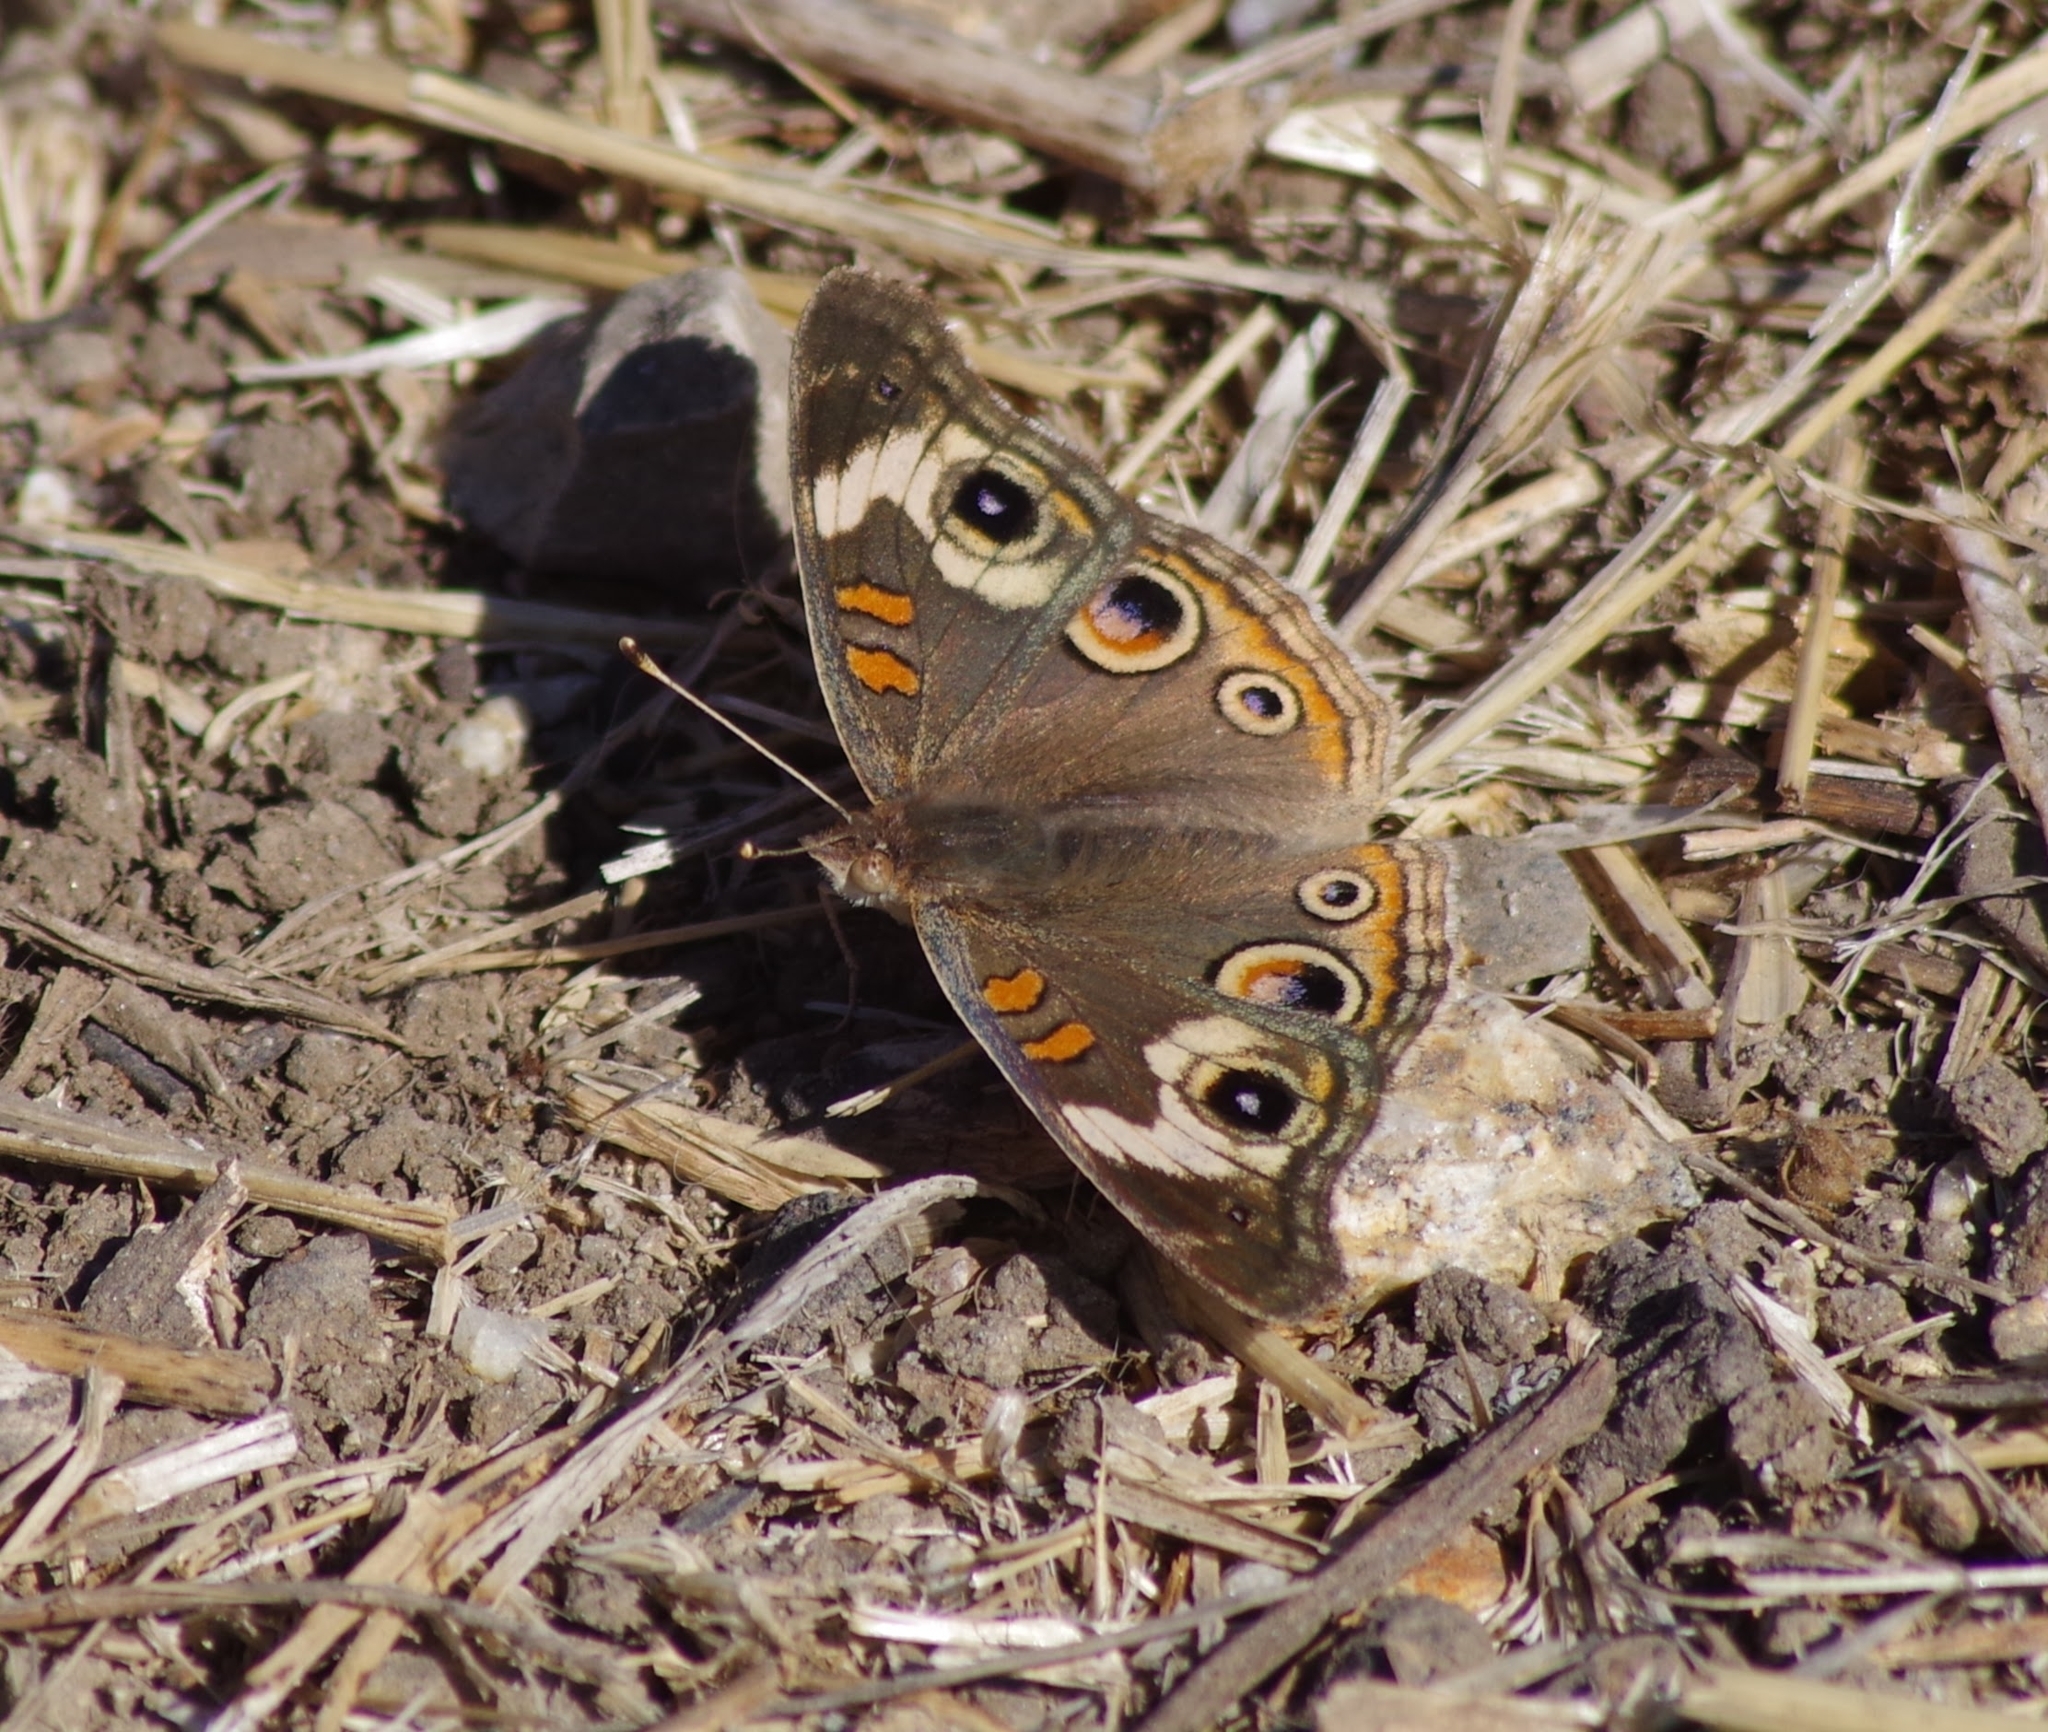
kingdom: Animalia
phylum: Arthropoda
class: Insecta
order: Lepidoptera
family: Nymphalidae
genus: Junonia
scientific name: Junonia grisea
